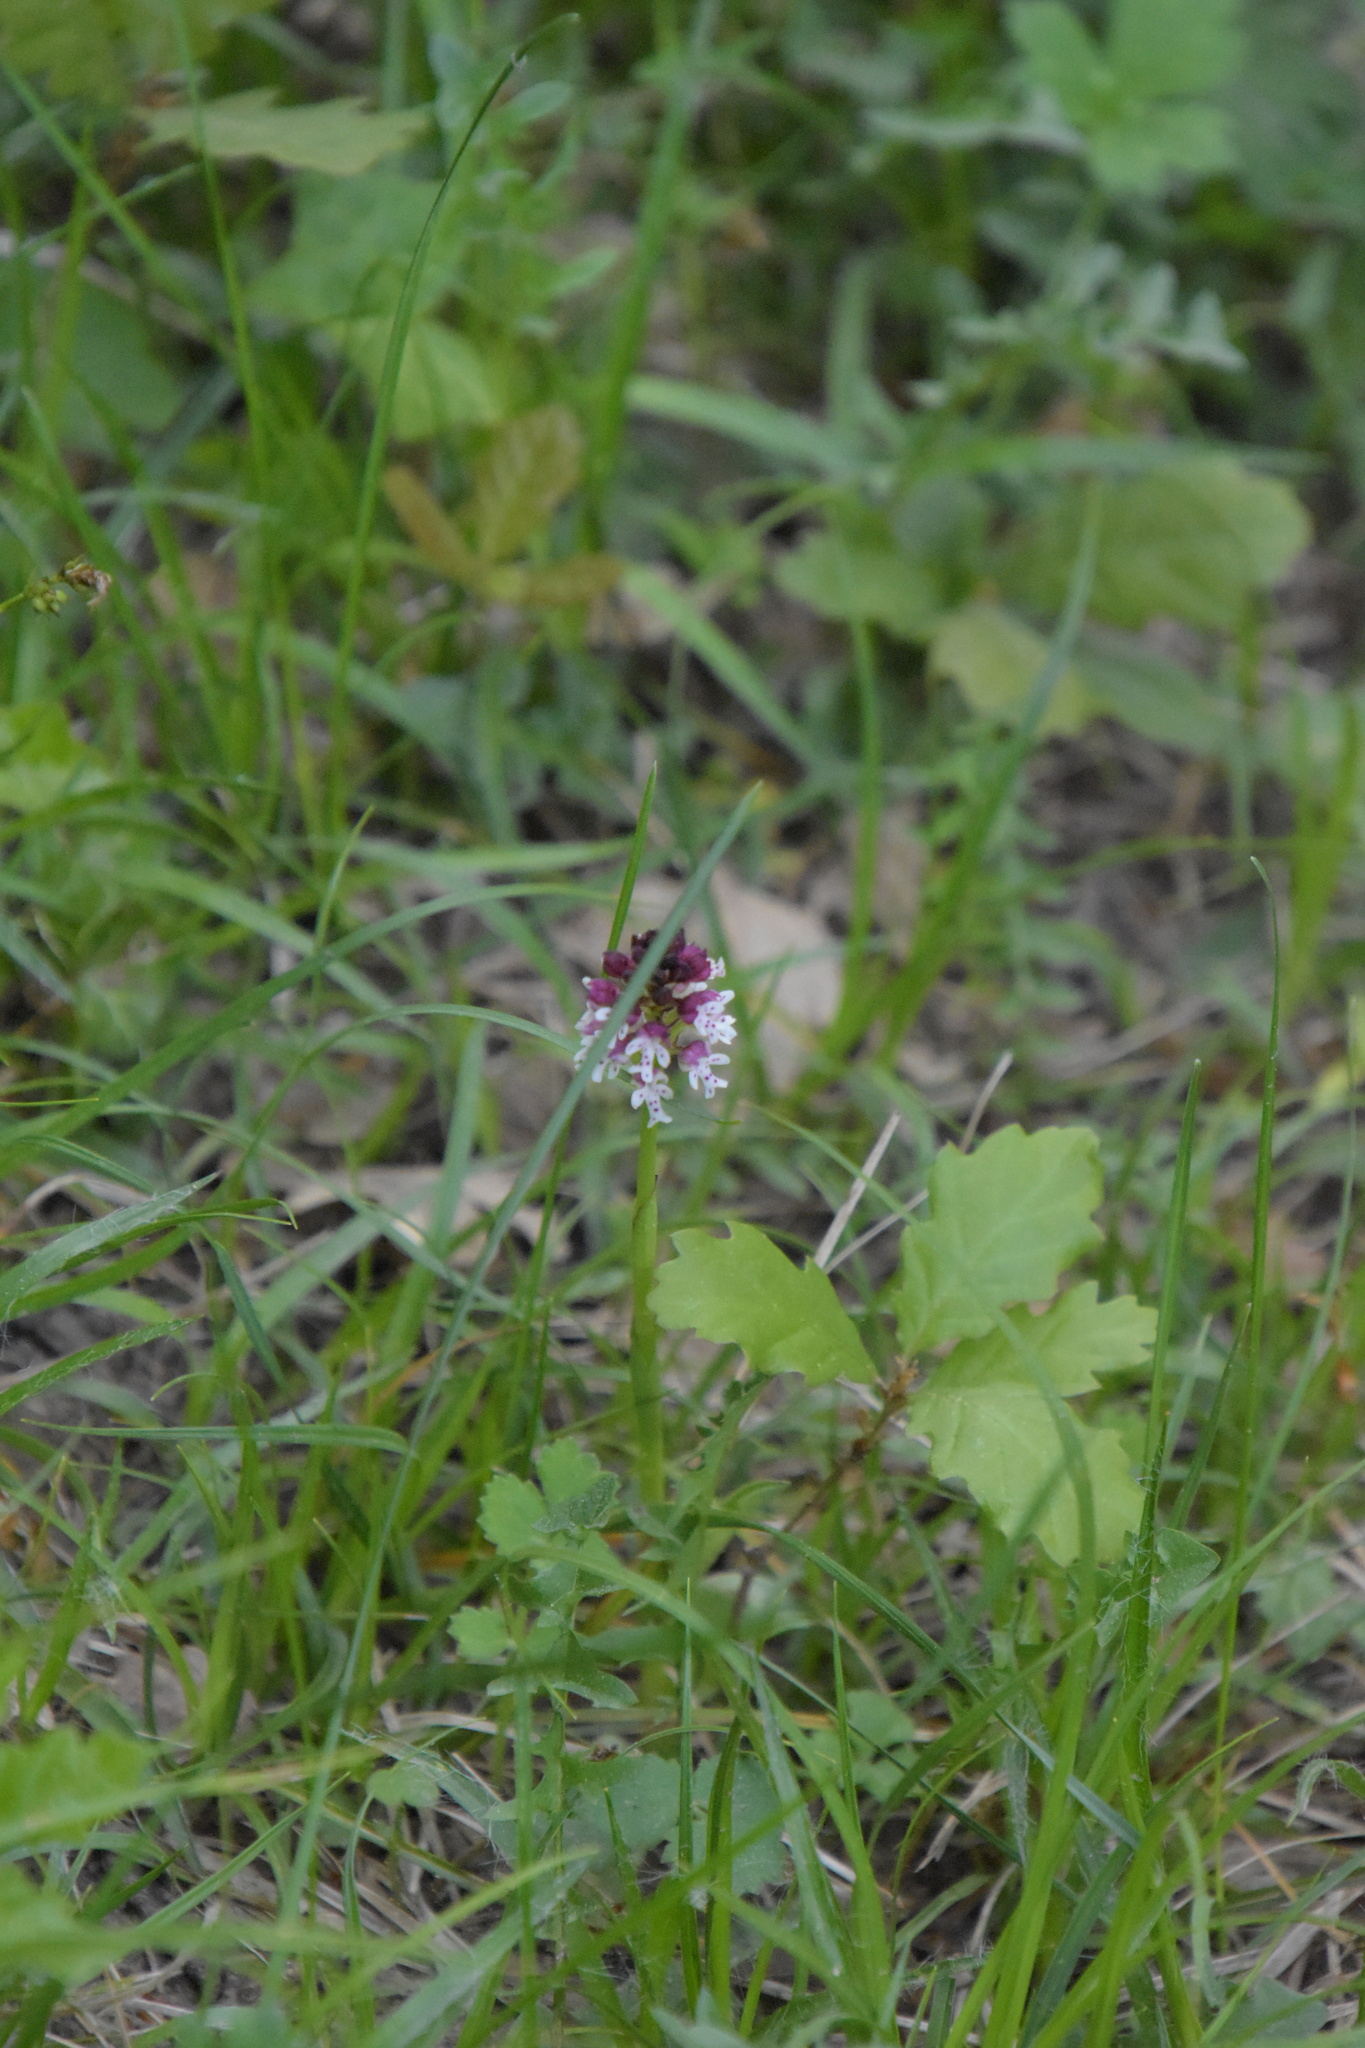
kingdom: Plantae
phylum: Tracheophyta
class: Liliopsida
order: Asparagales
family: Orchidaceae
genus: Neotinea
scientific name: Neotinea ustulata
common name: Burnt orchid
